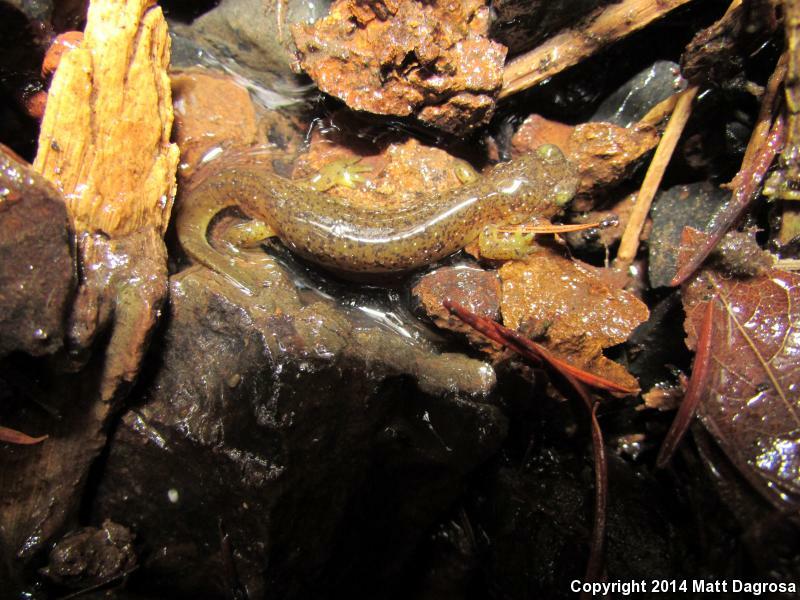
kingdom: Animalia
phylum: Chordata
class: Amphibia
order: Caudata
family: Rhyacotritonidae
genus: Rhyacotriton
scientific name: Rhyacotriton cascadae
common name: Cascade torrent salamander
